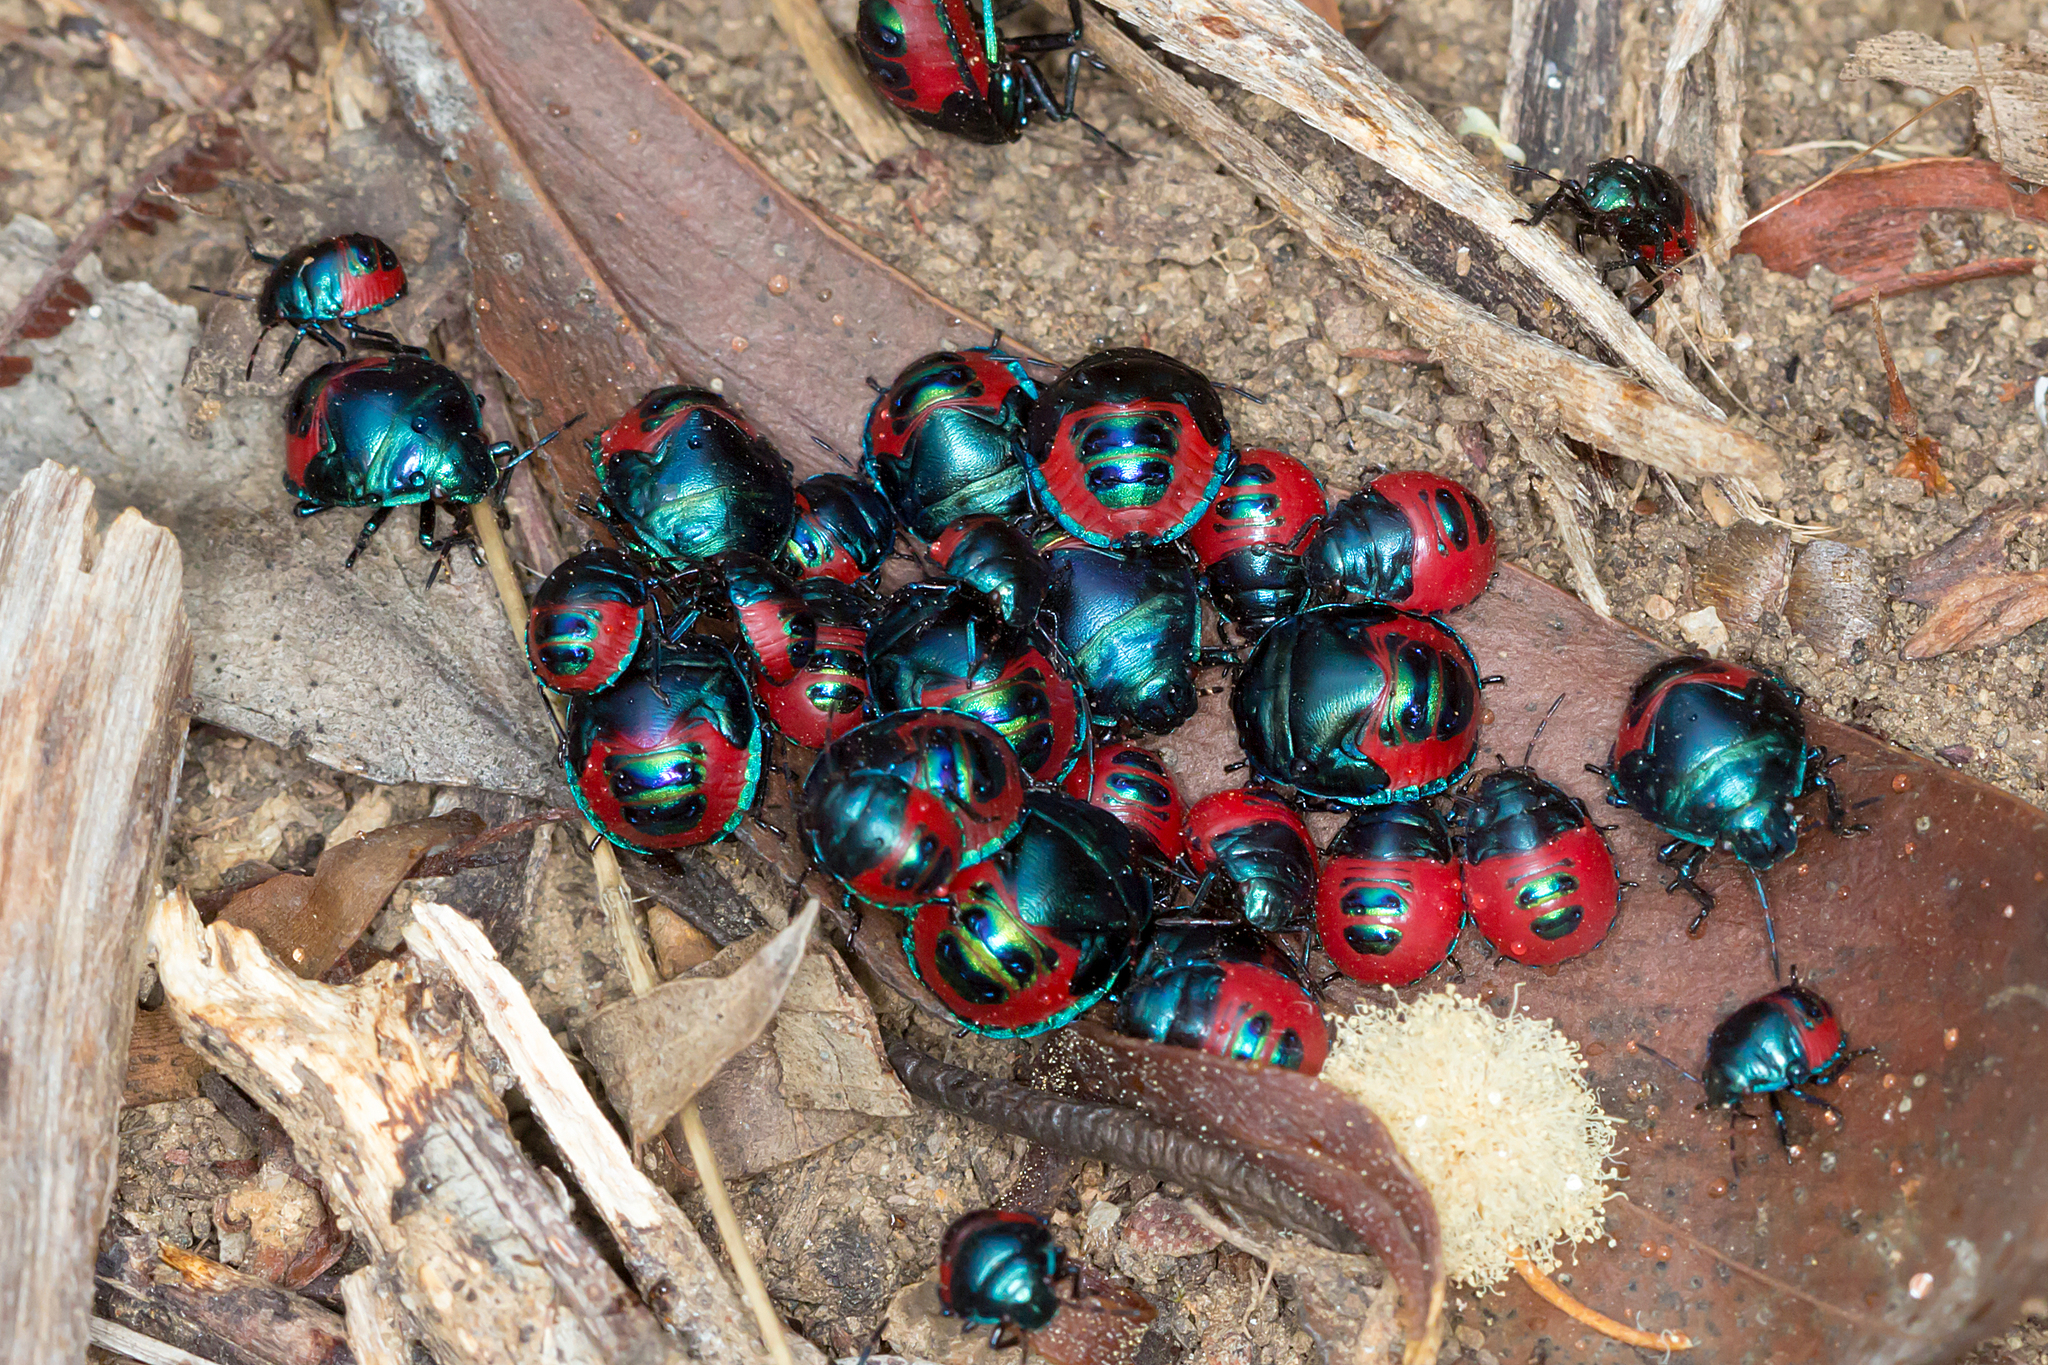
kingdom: Animalia
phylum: Arthropoda
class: Insecta
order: Hemiptera
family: Scutelleridae
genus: Choerocoris
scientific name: Choerocoris paganus
